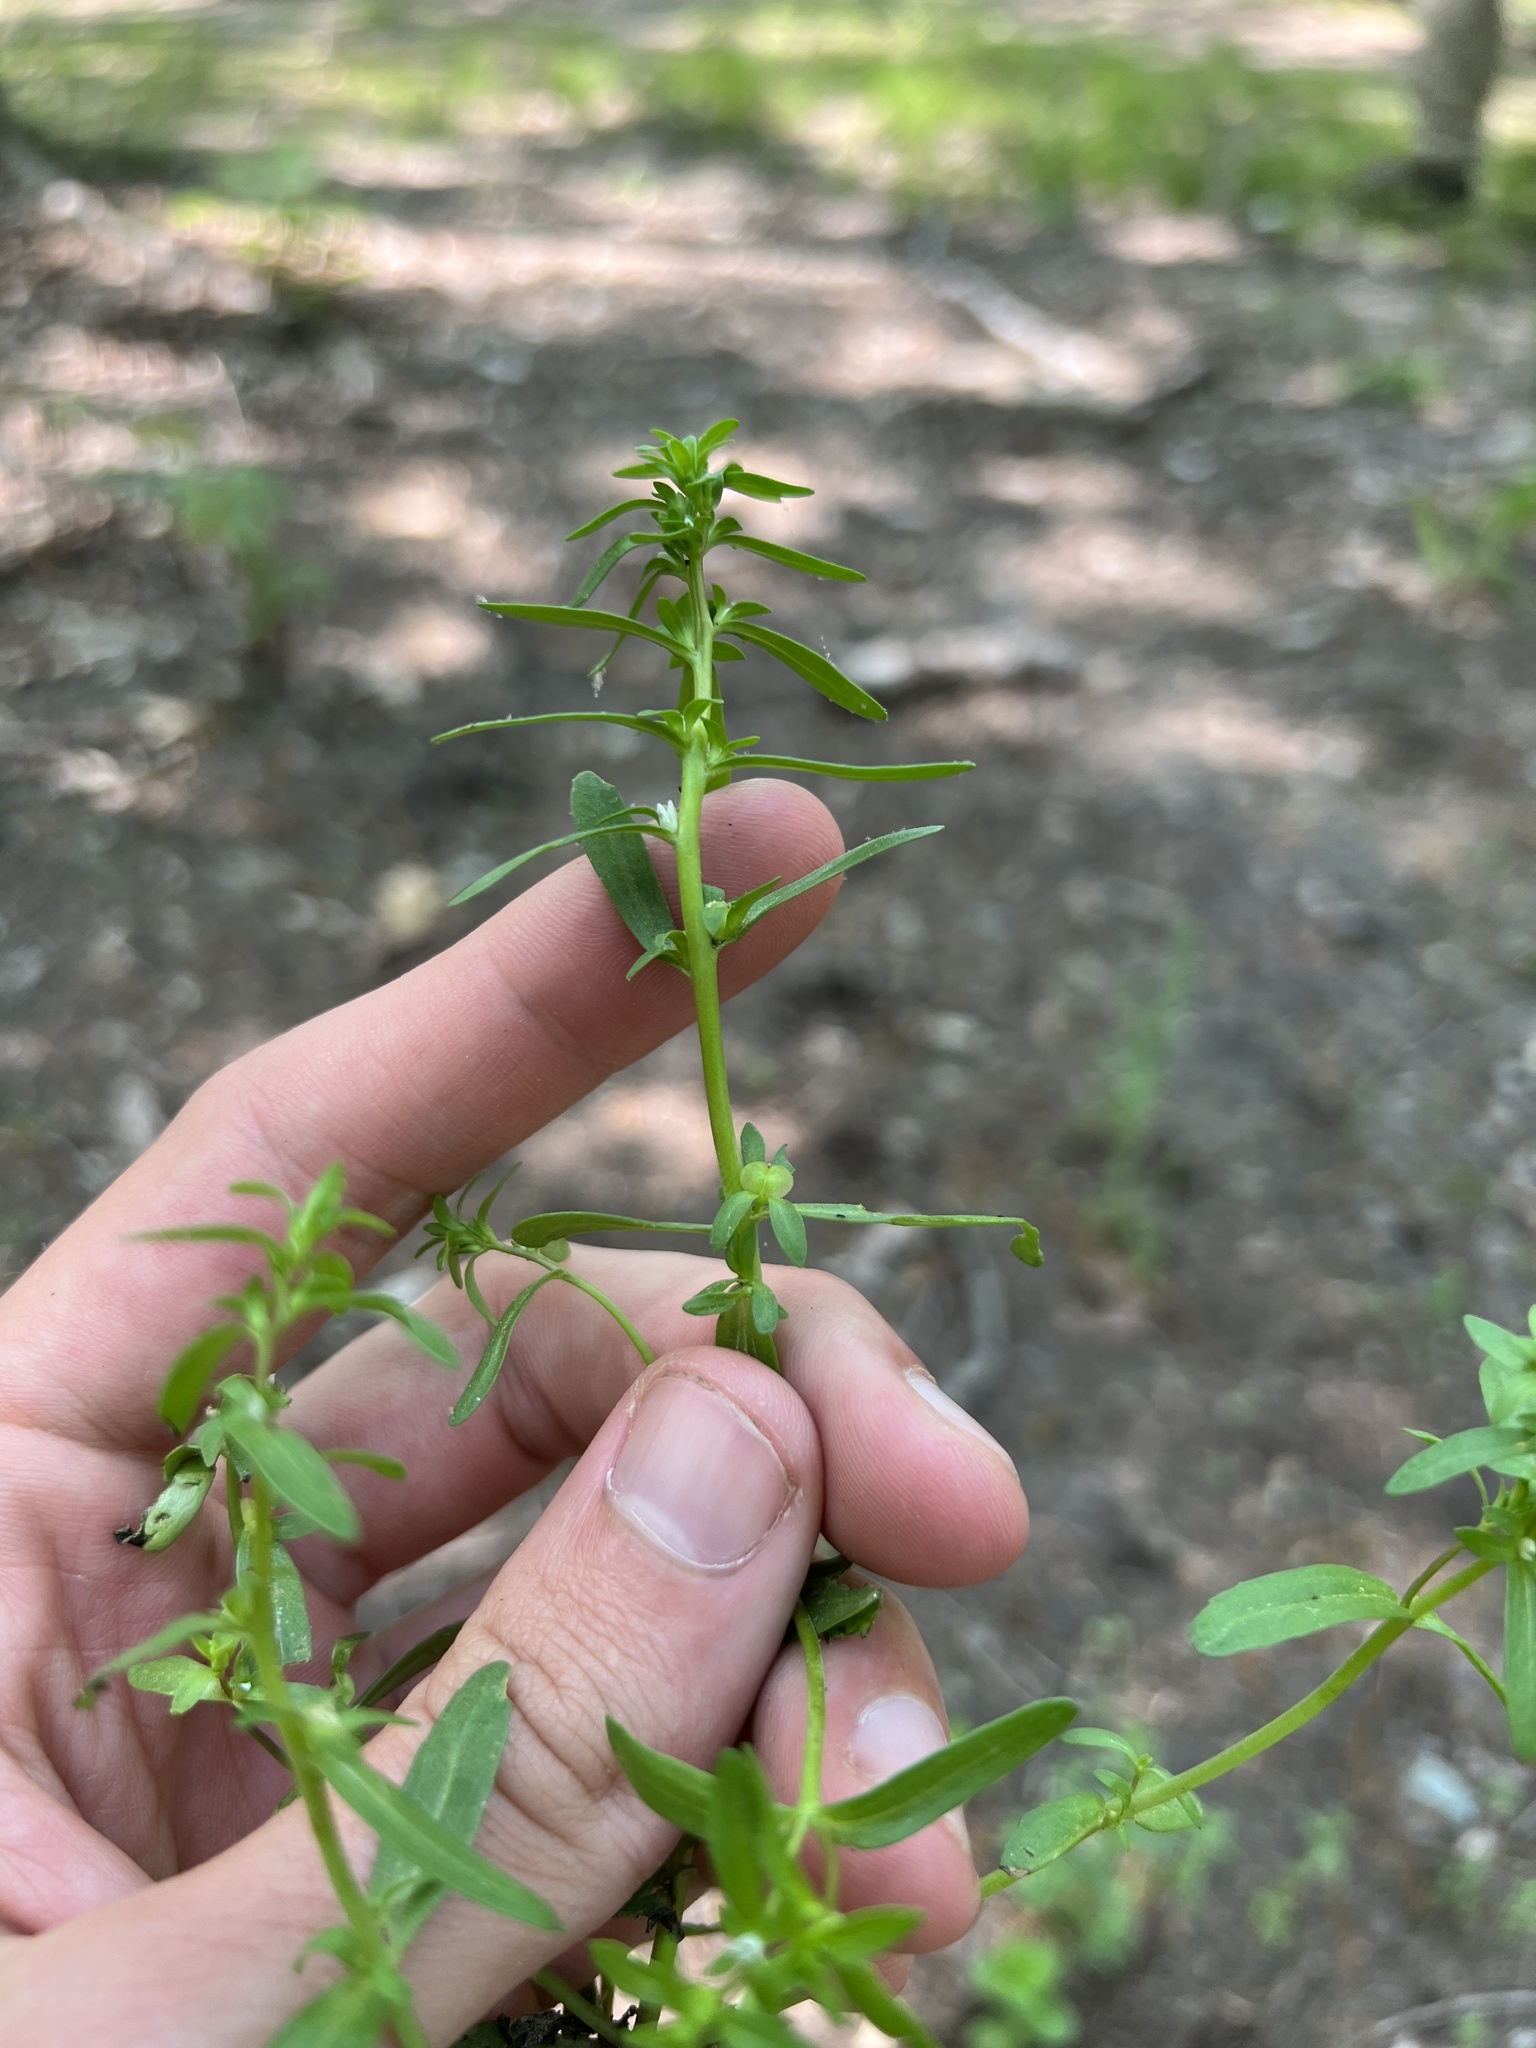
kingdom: Plantae
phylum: Tracheophyta
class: Magnoliopsida
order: Lamiales
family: Plantaginaceae
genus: Veronica
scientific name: Veronica peregrina
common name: Neckweed
